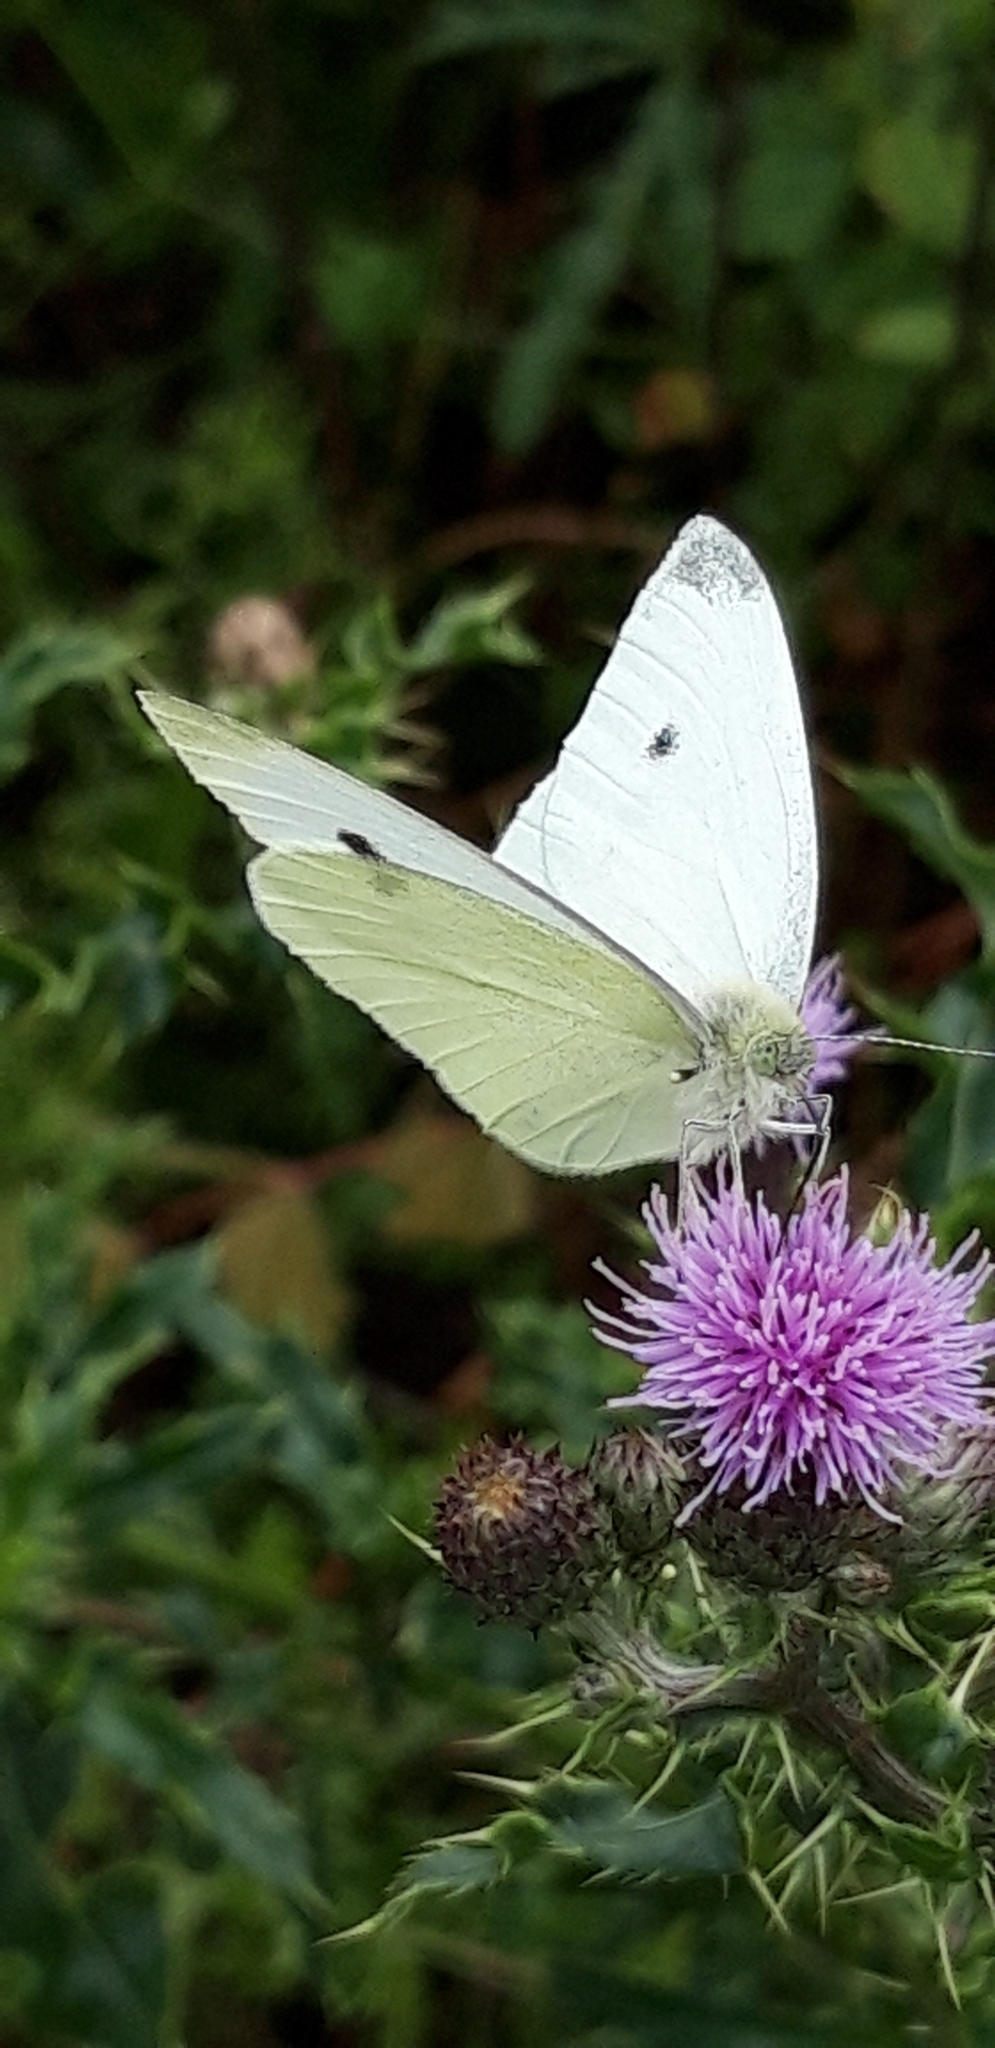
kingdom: Animalia
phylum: Arthropoda
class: Insecta
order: Lepidoptera
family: Pieridae
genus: Pieris
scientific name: Pieris rapae
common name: Small white
